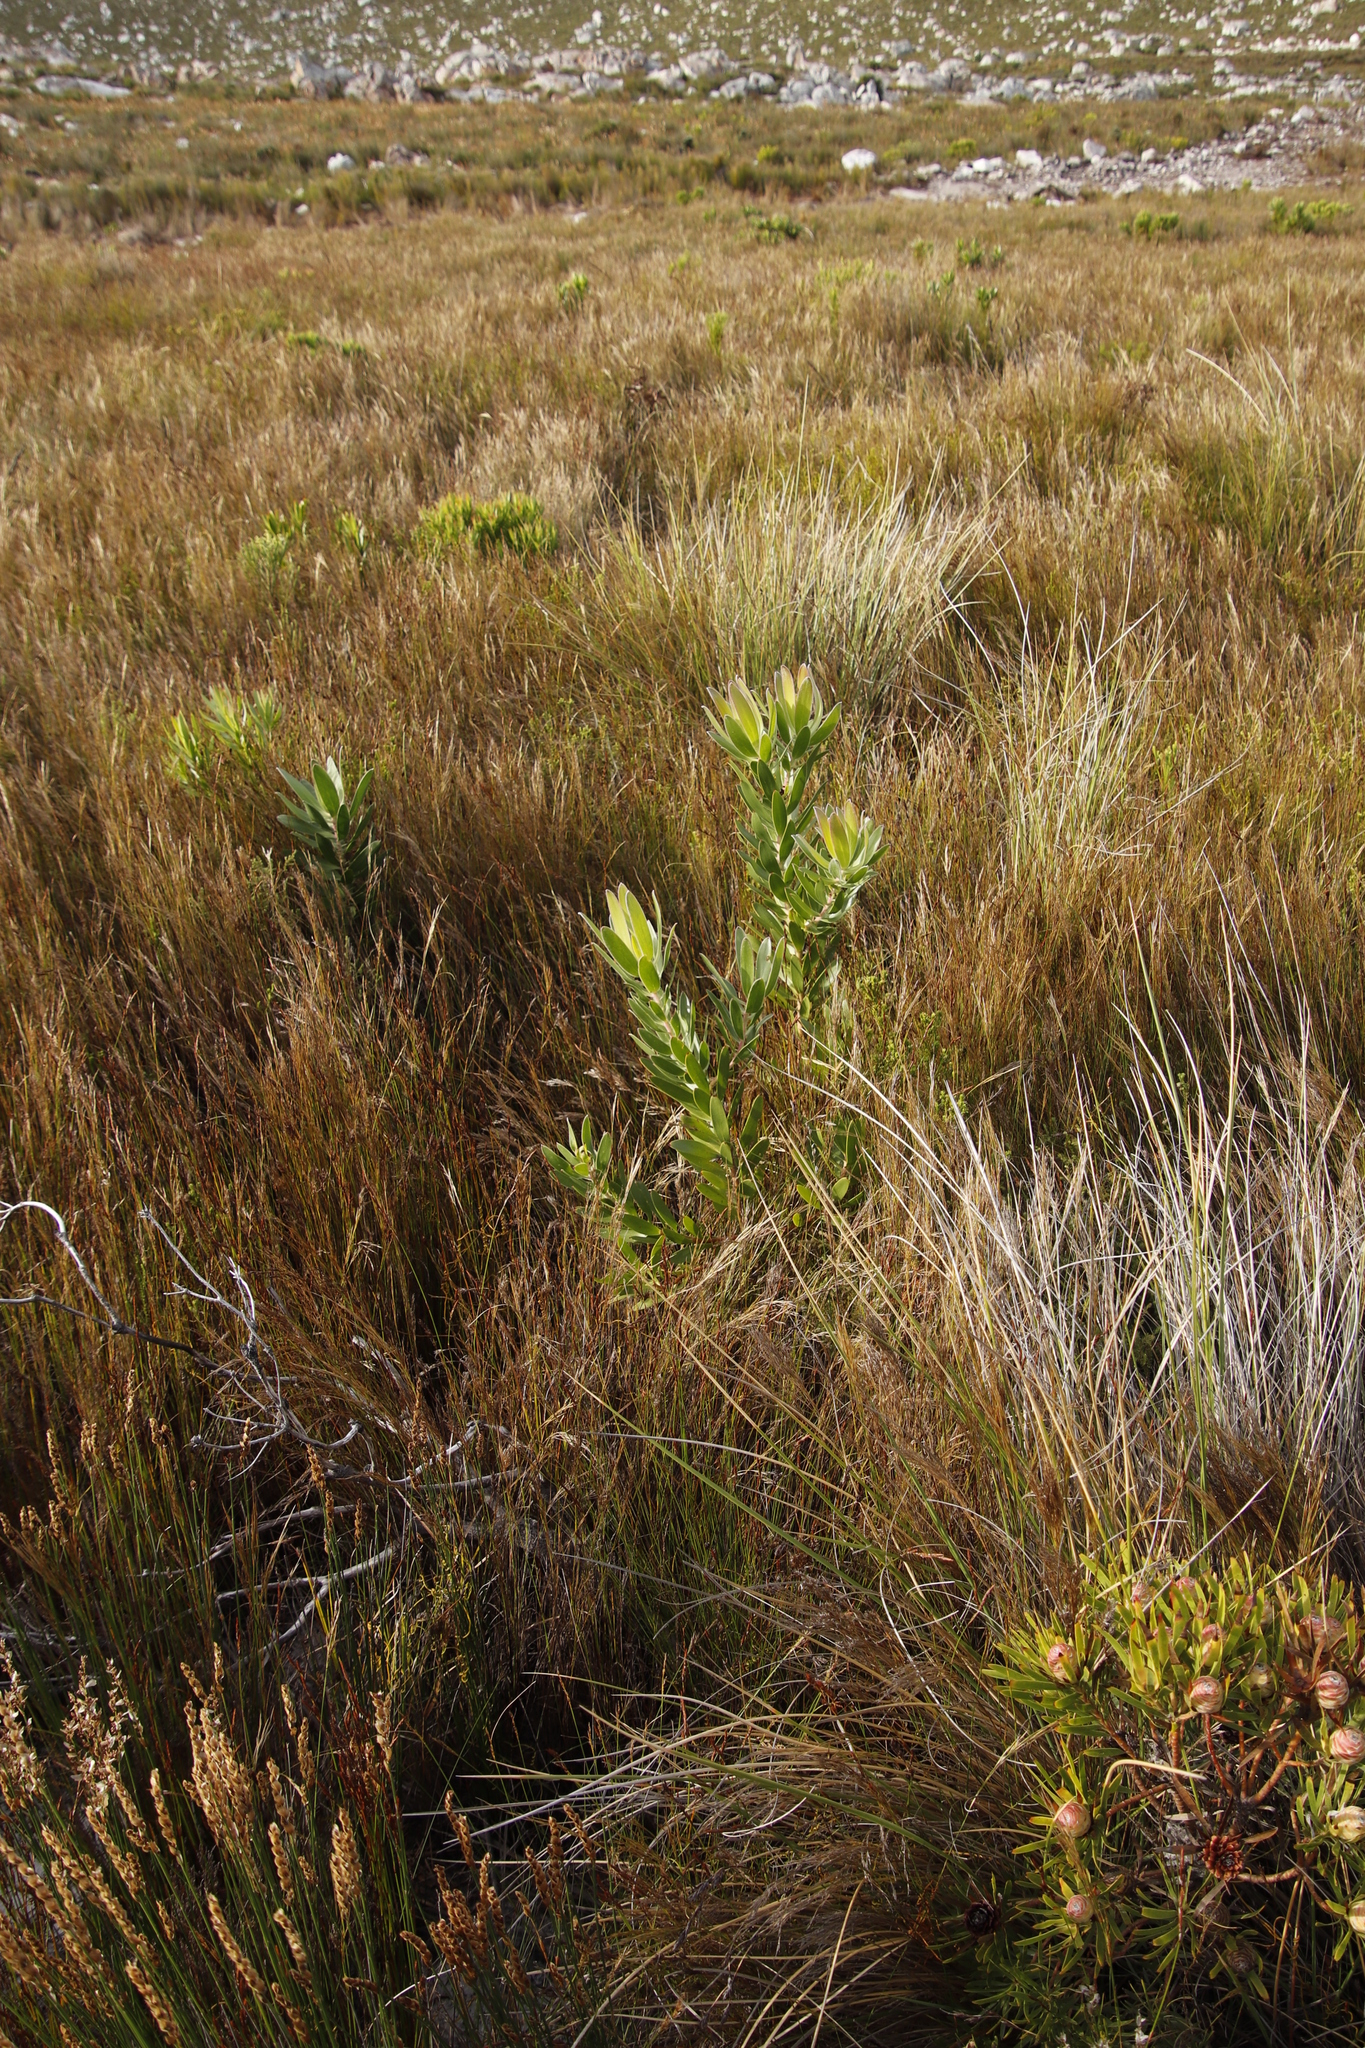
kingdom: Plantae
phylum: Tracheophyta
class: Magnoliopsida
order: Proteales
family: Proteaceae
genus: Leucadendron
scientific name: Leucadendron laureolum
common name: Golden sunshinebush
